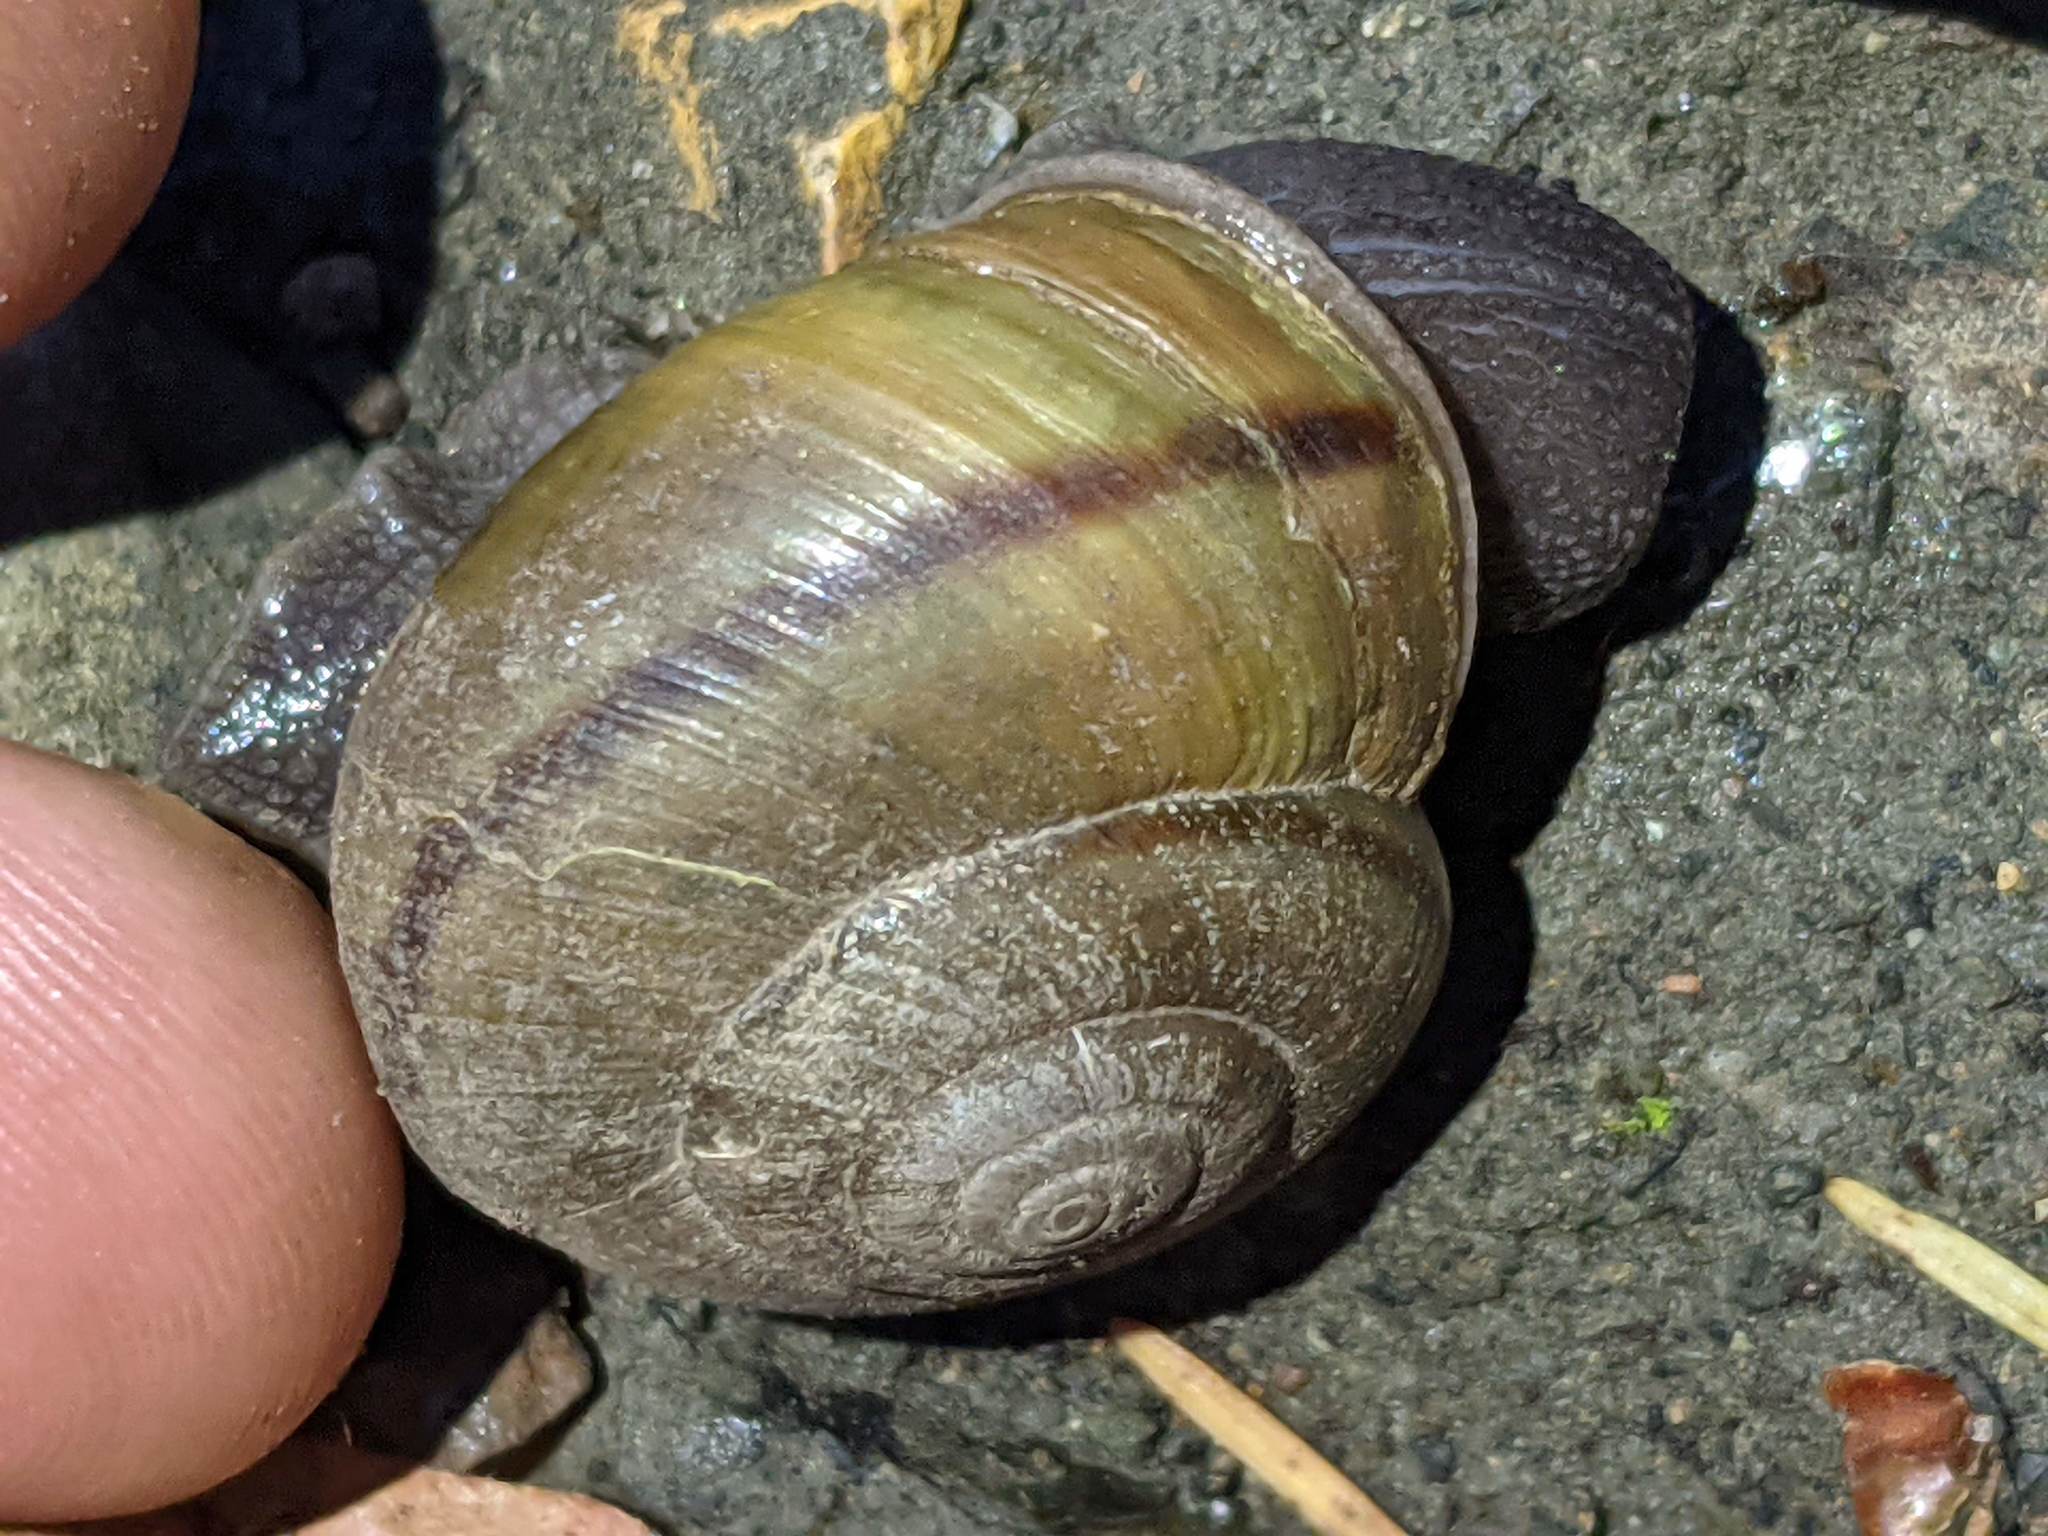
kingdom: Animalia
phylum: Mollusca
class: Gastropoda
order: Stylommatophora
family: Xanthonychidae
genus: Helminthoglypta
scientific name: Helminthoglypta phlyctaena
